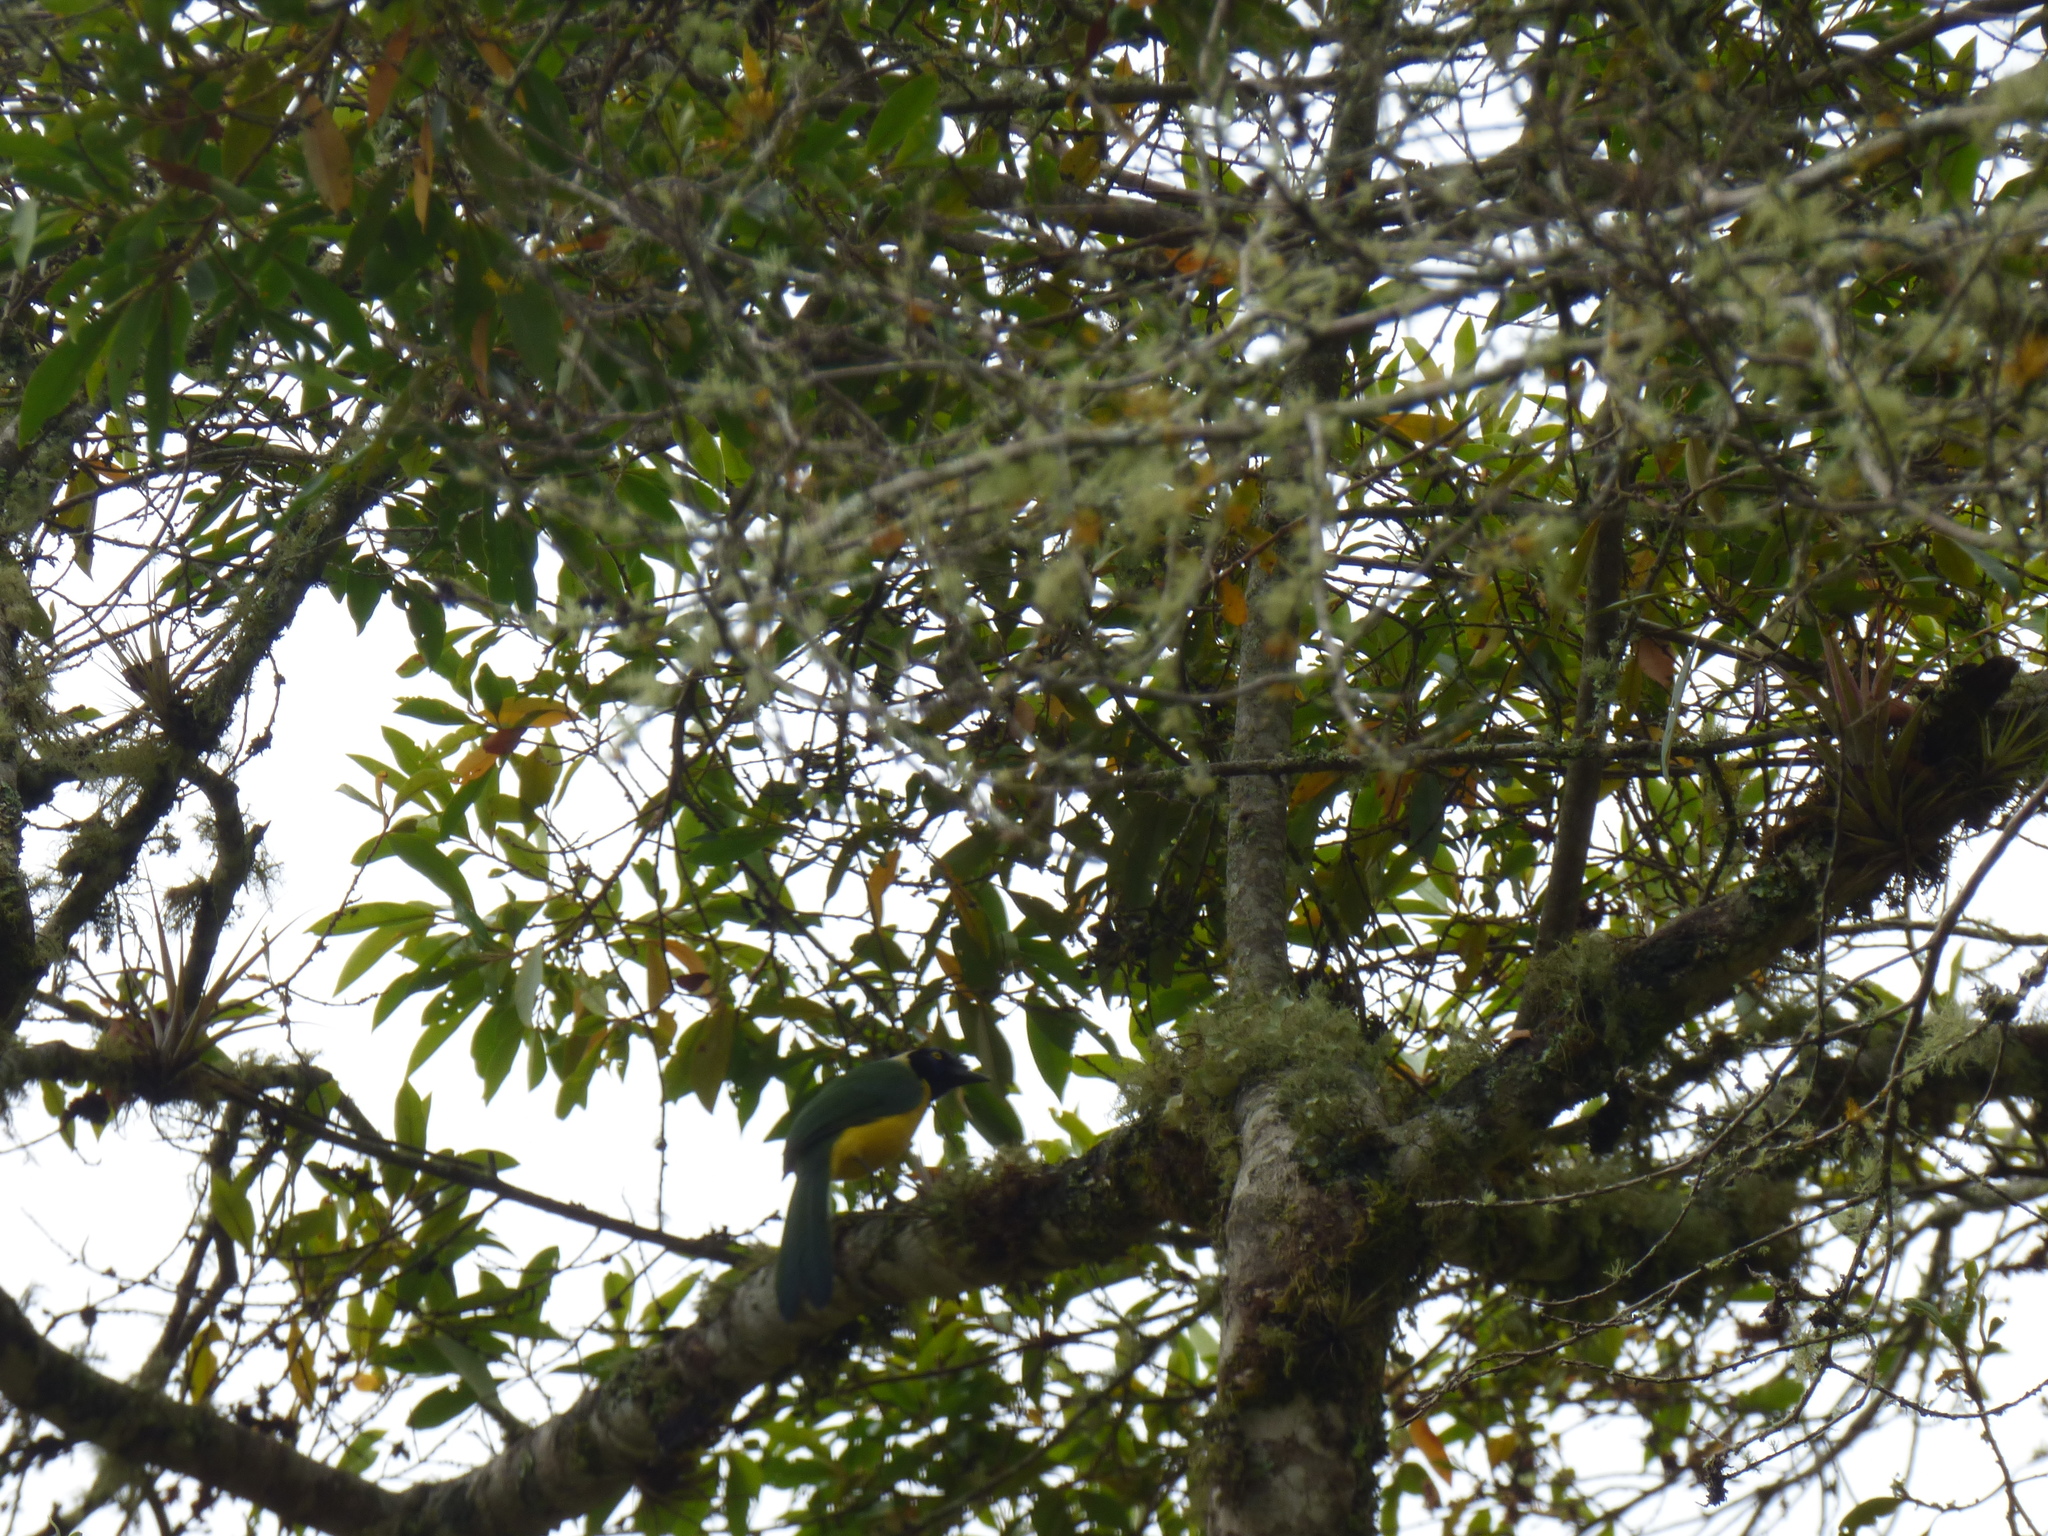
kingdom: Animalia
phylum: Chordata
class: Aves
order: Passeriformes
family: Corvidae
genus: Cyanocorax
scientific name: Cyanocorax yncas
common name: Green jay
